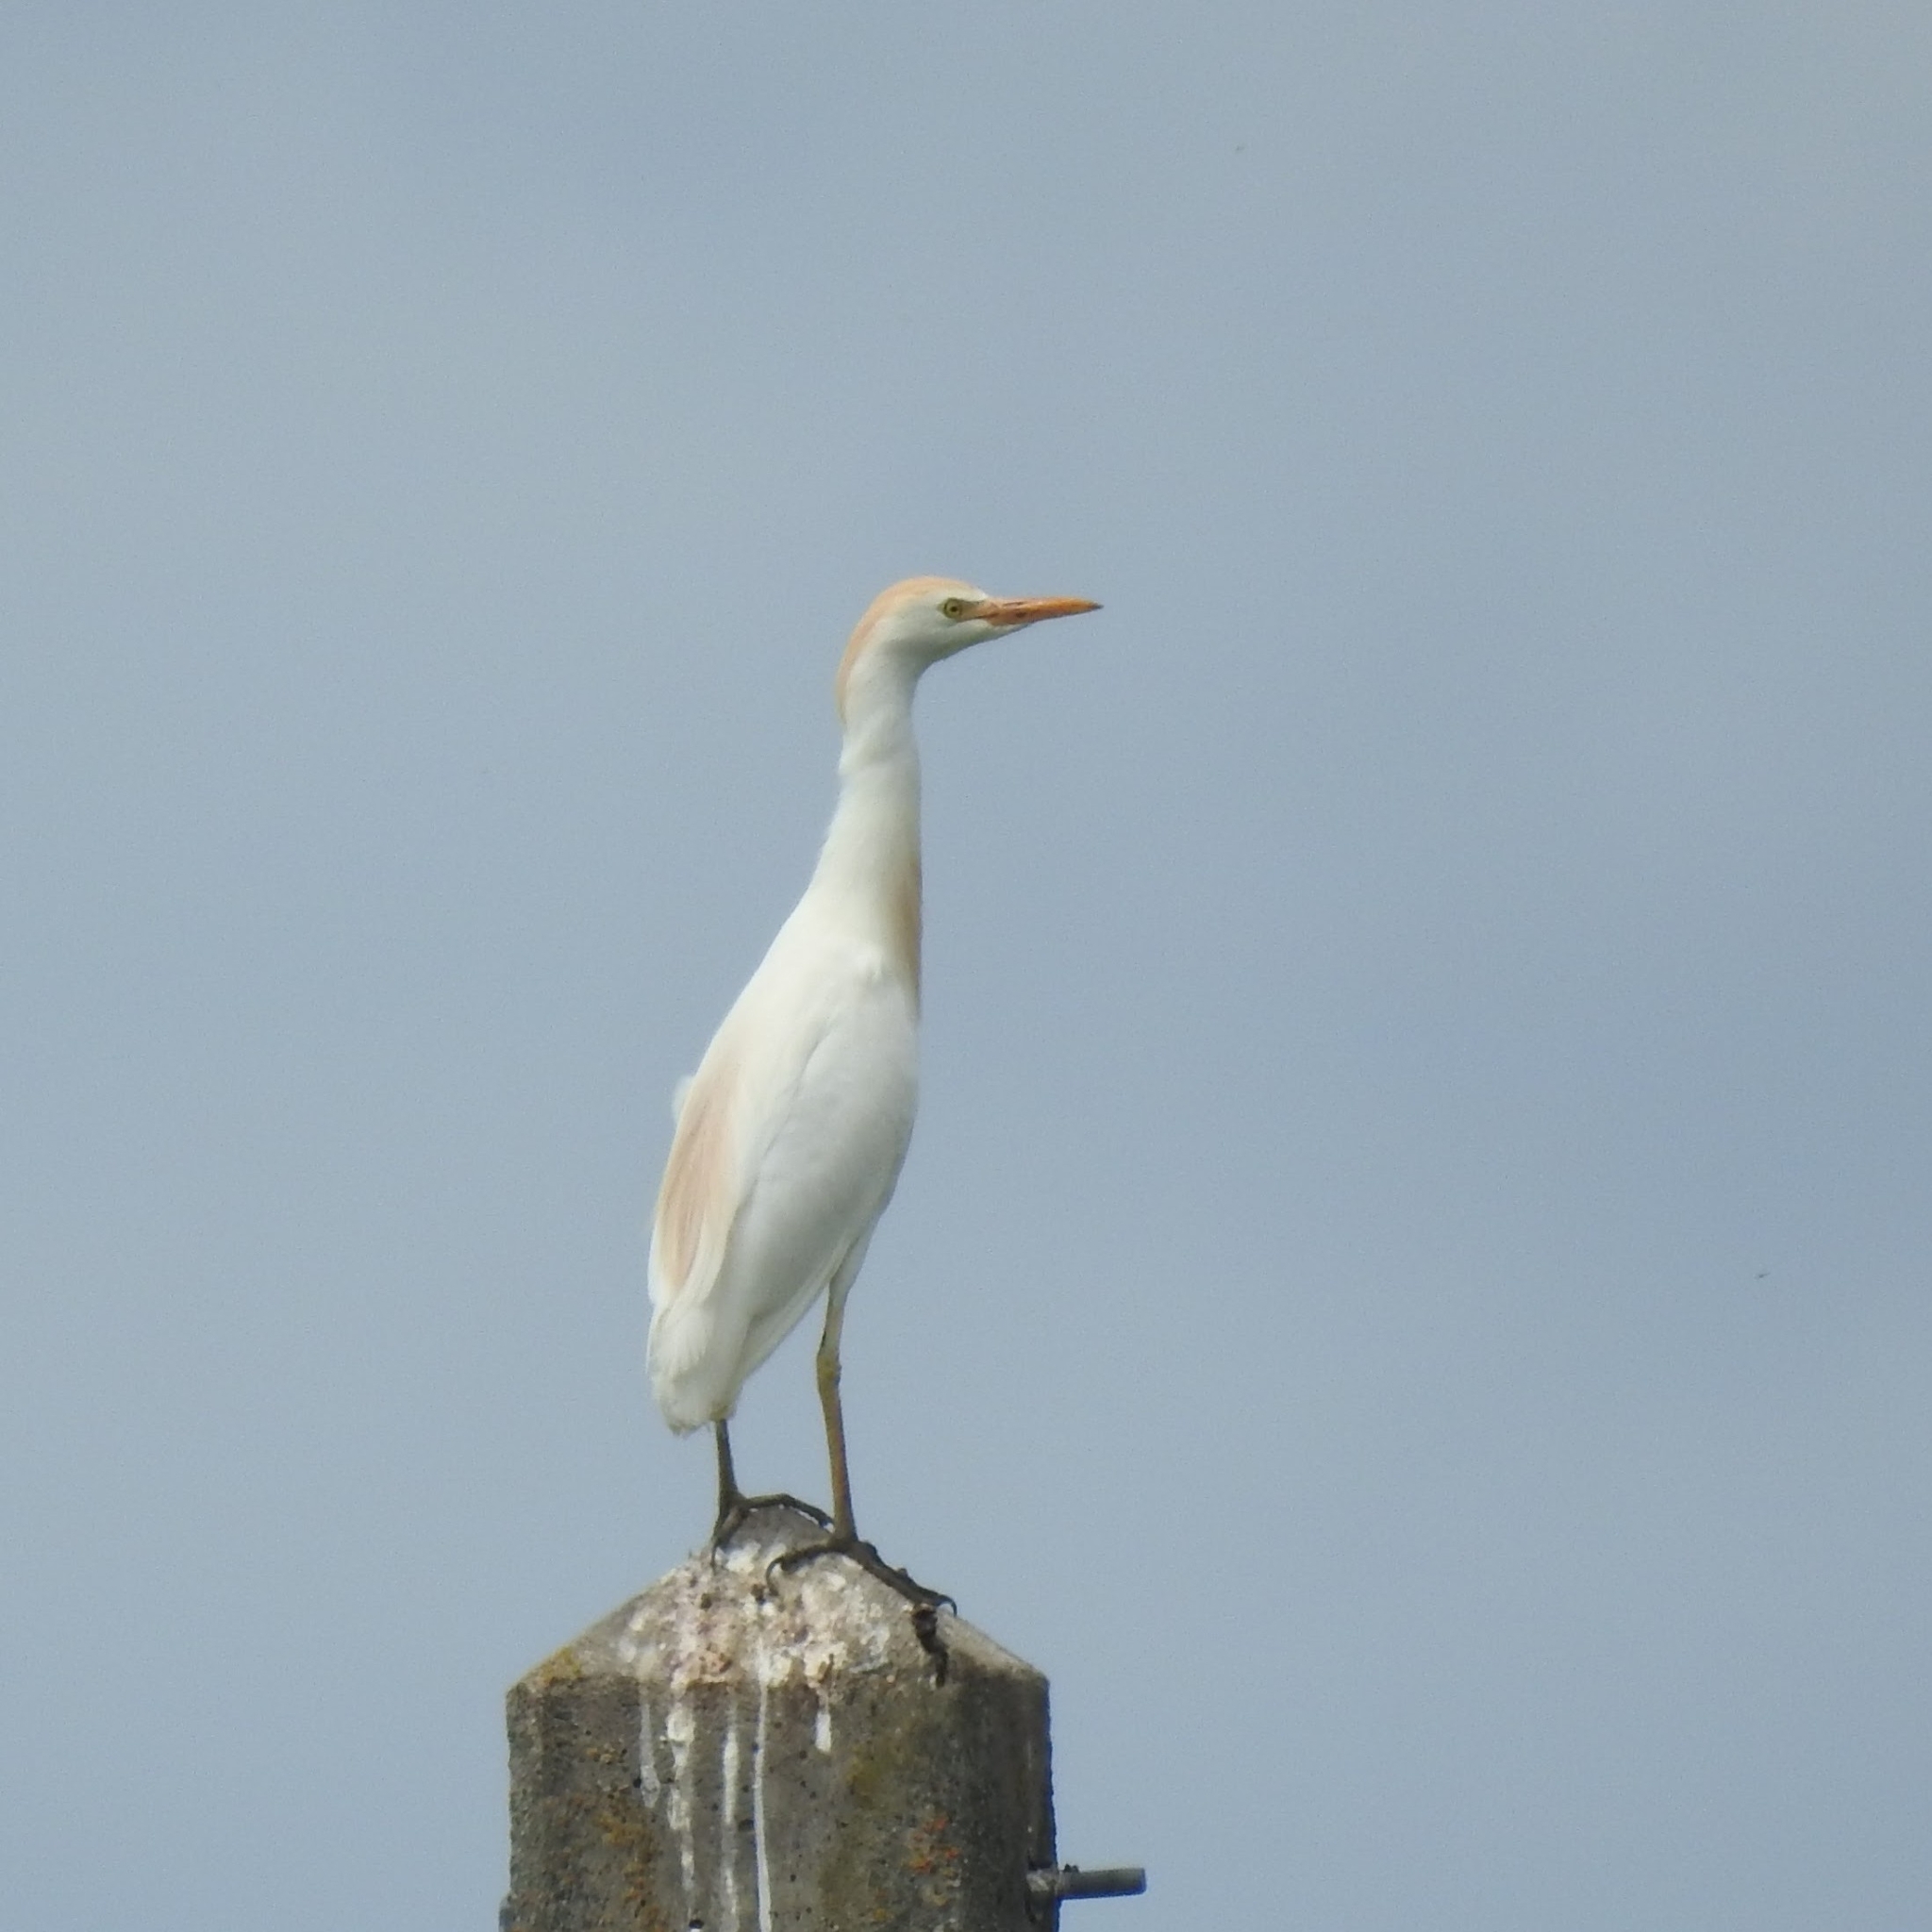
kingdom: Animalia
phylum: Chordata
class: Aves
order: Pelecaniformes
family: Ardeidae
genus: Bubulcus
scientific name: Bubulcus ibis
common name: Cattle egret
